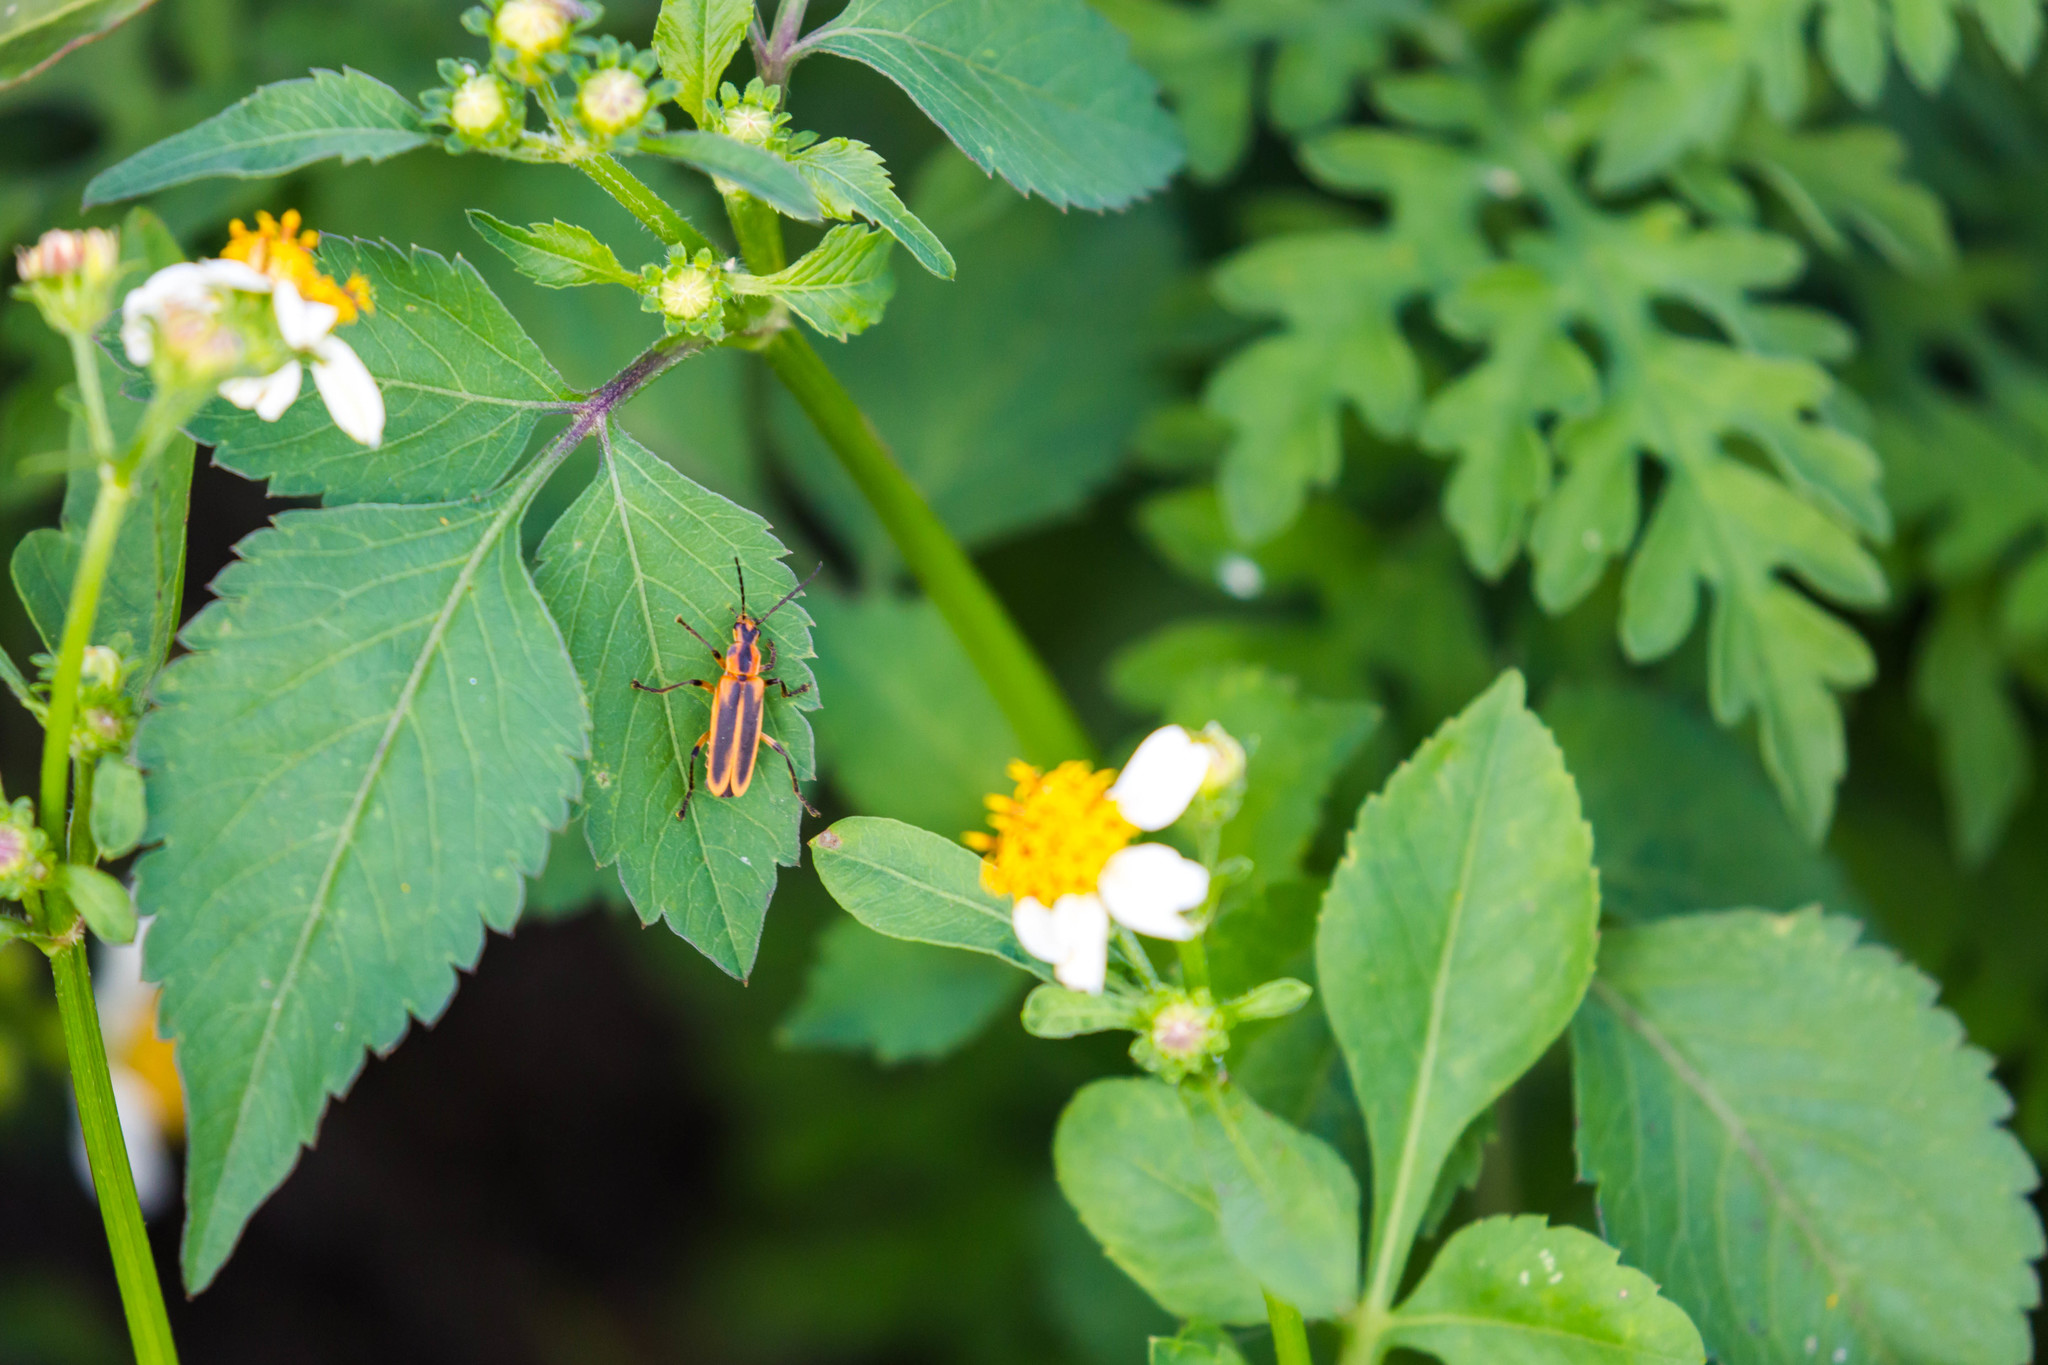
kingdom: Animalia
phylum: Arthropoda
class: Insecta
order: Coleoptera
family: Cantharidae
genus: Chauliognathus
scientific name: Chauliognathus marginatus
